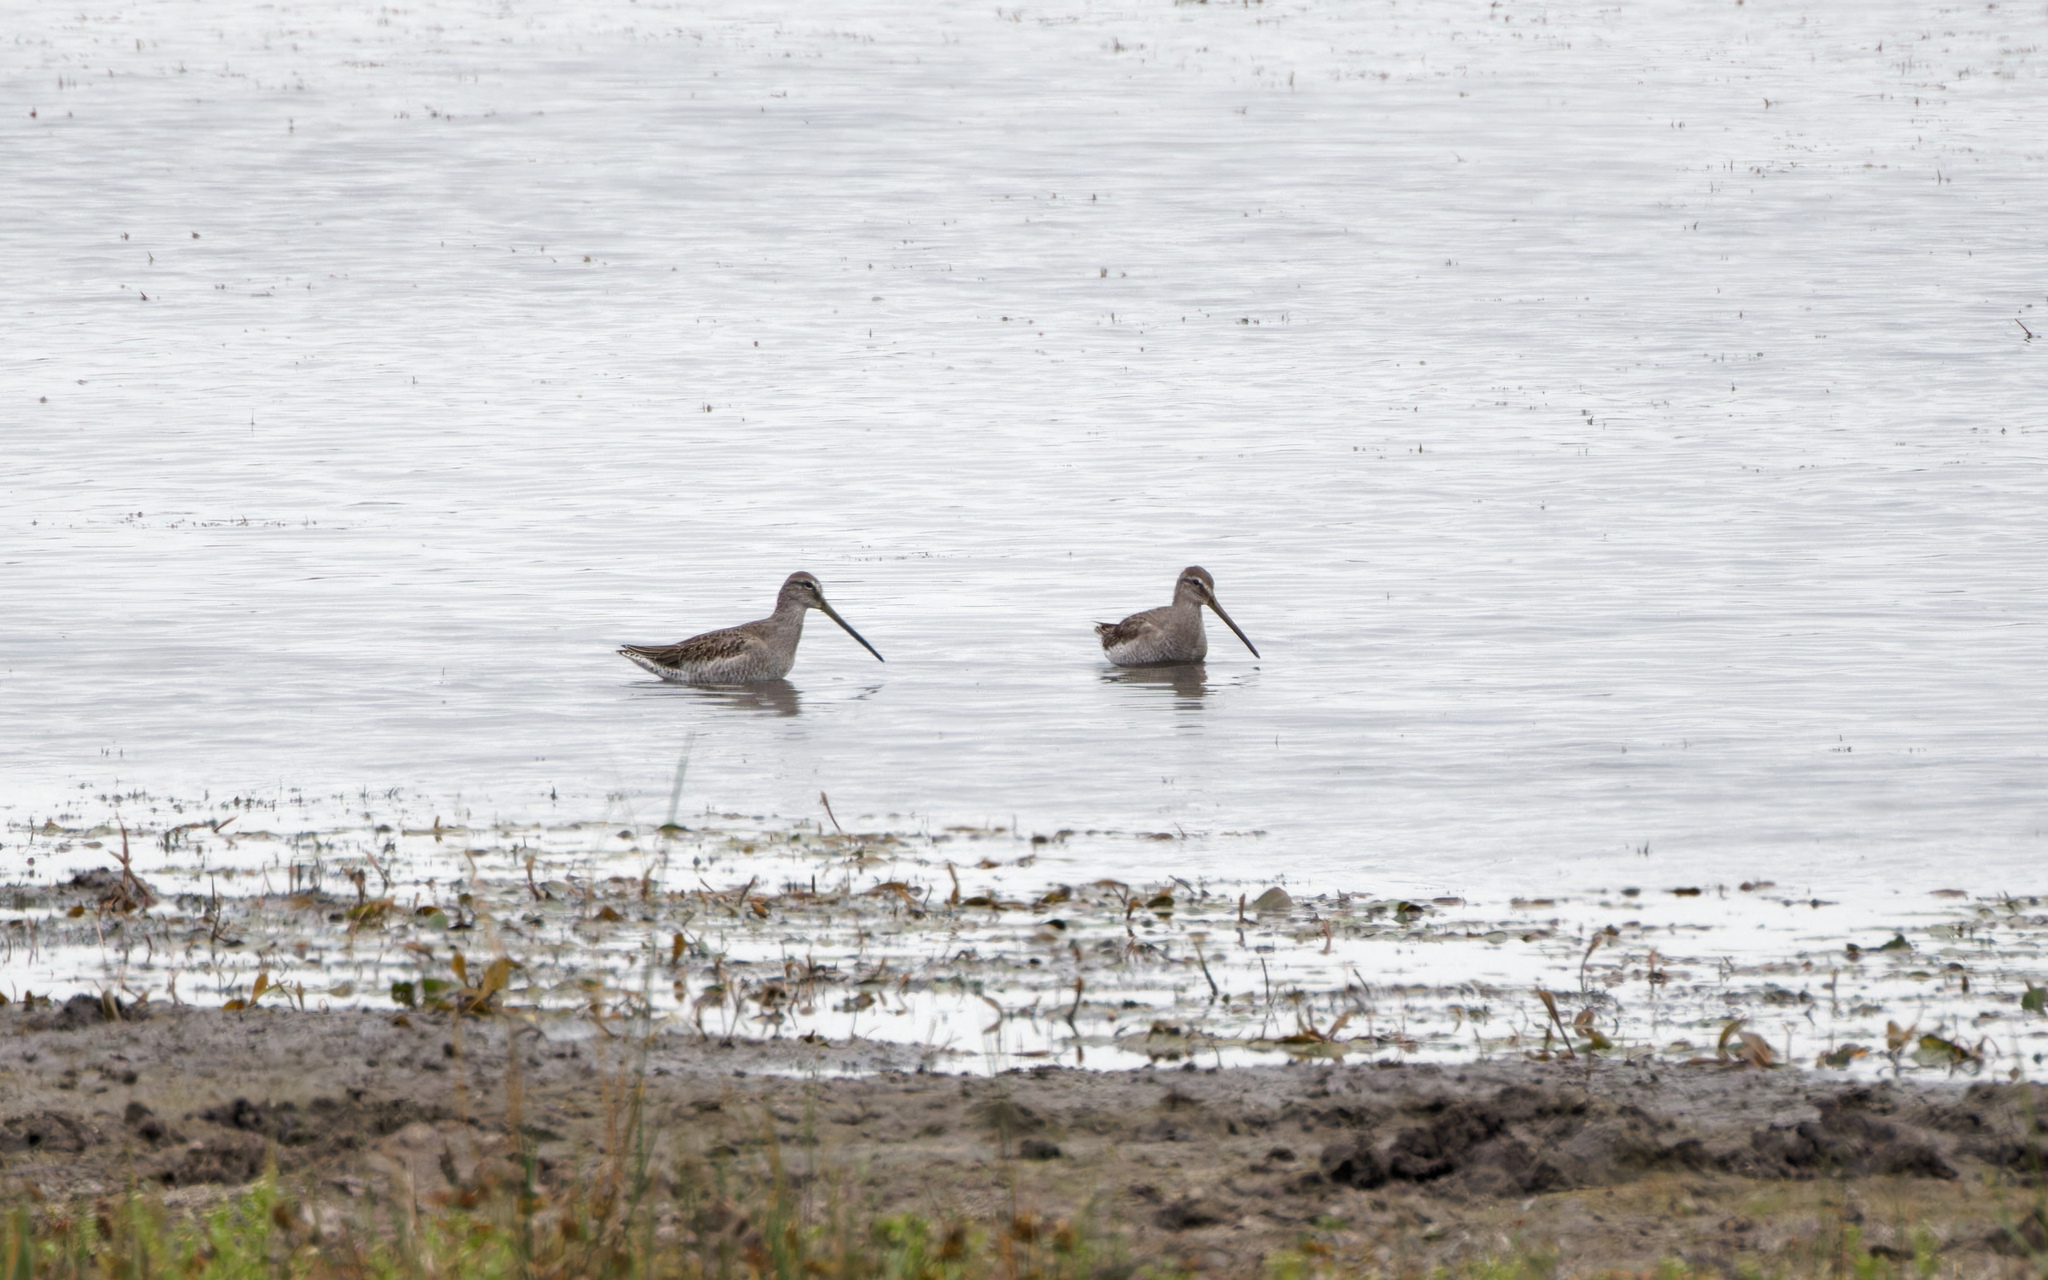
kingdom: Animalia
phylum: Chordata
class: Aves
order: Charadriiformes
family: Scolopacidae
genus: Limnodromus
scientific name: Limnodromus scolopaceus
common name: Long-billed dowitcher
